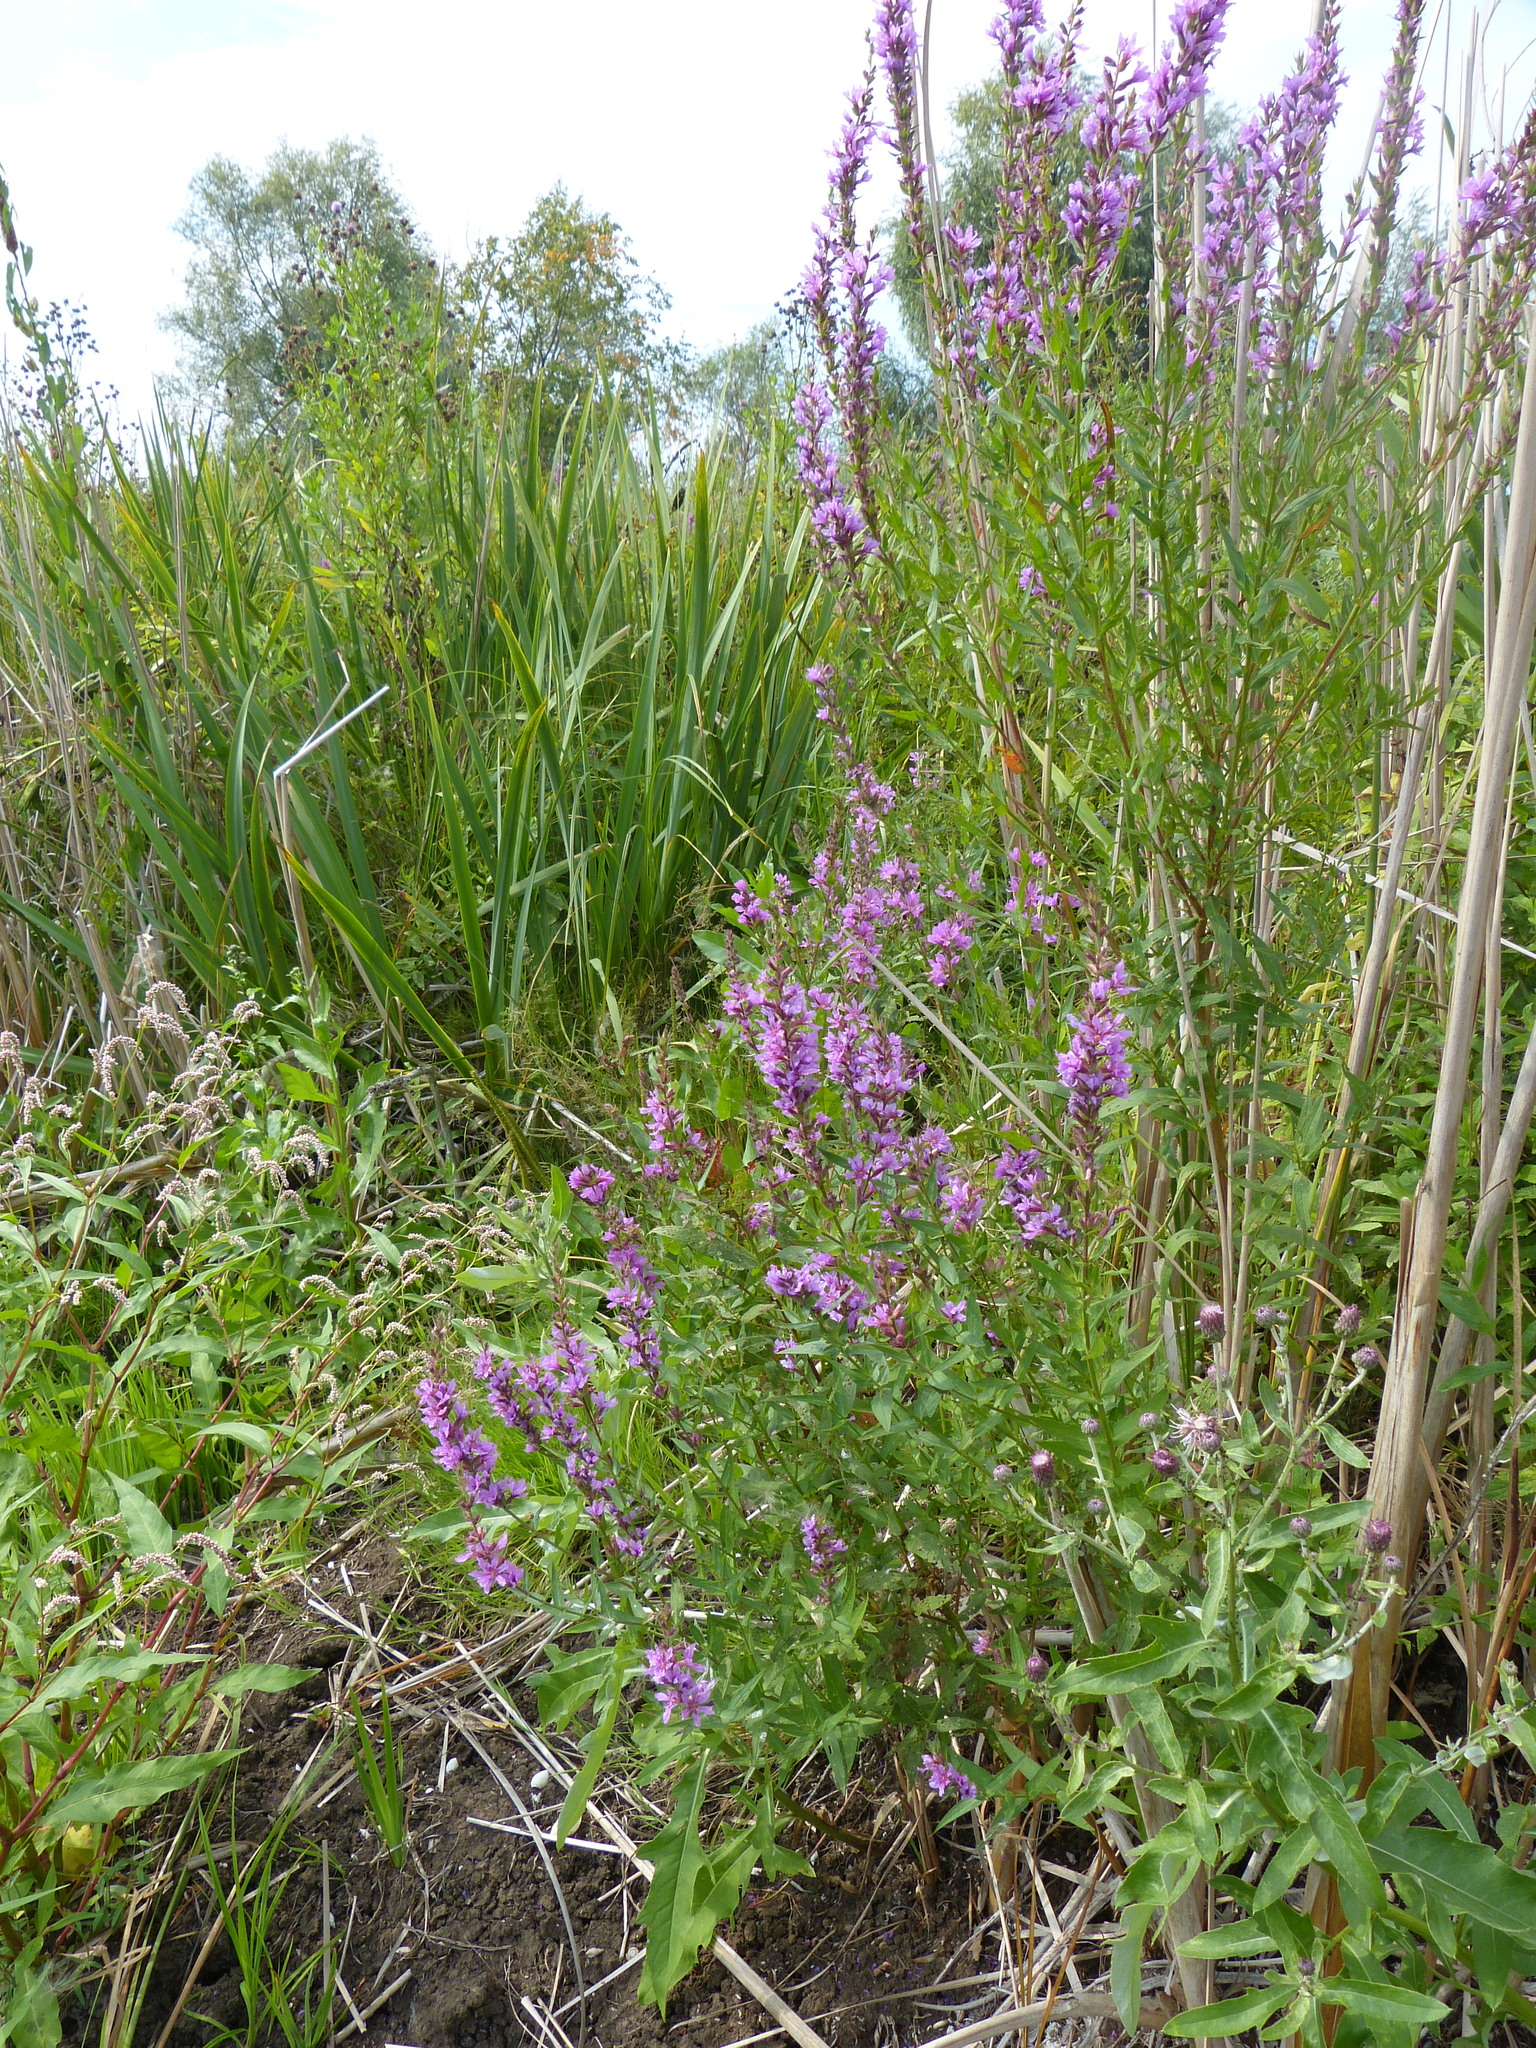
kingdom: Plantae
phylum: Tracheophyta
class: Magnoliopsida
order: Myrtales
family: Lythraceae
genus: Lythrum
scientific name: Lythrum salicaria
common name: Purple loosestrife
